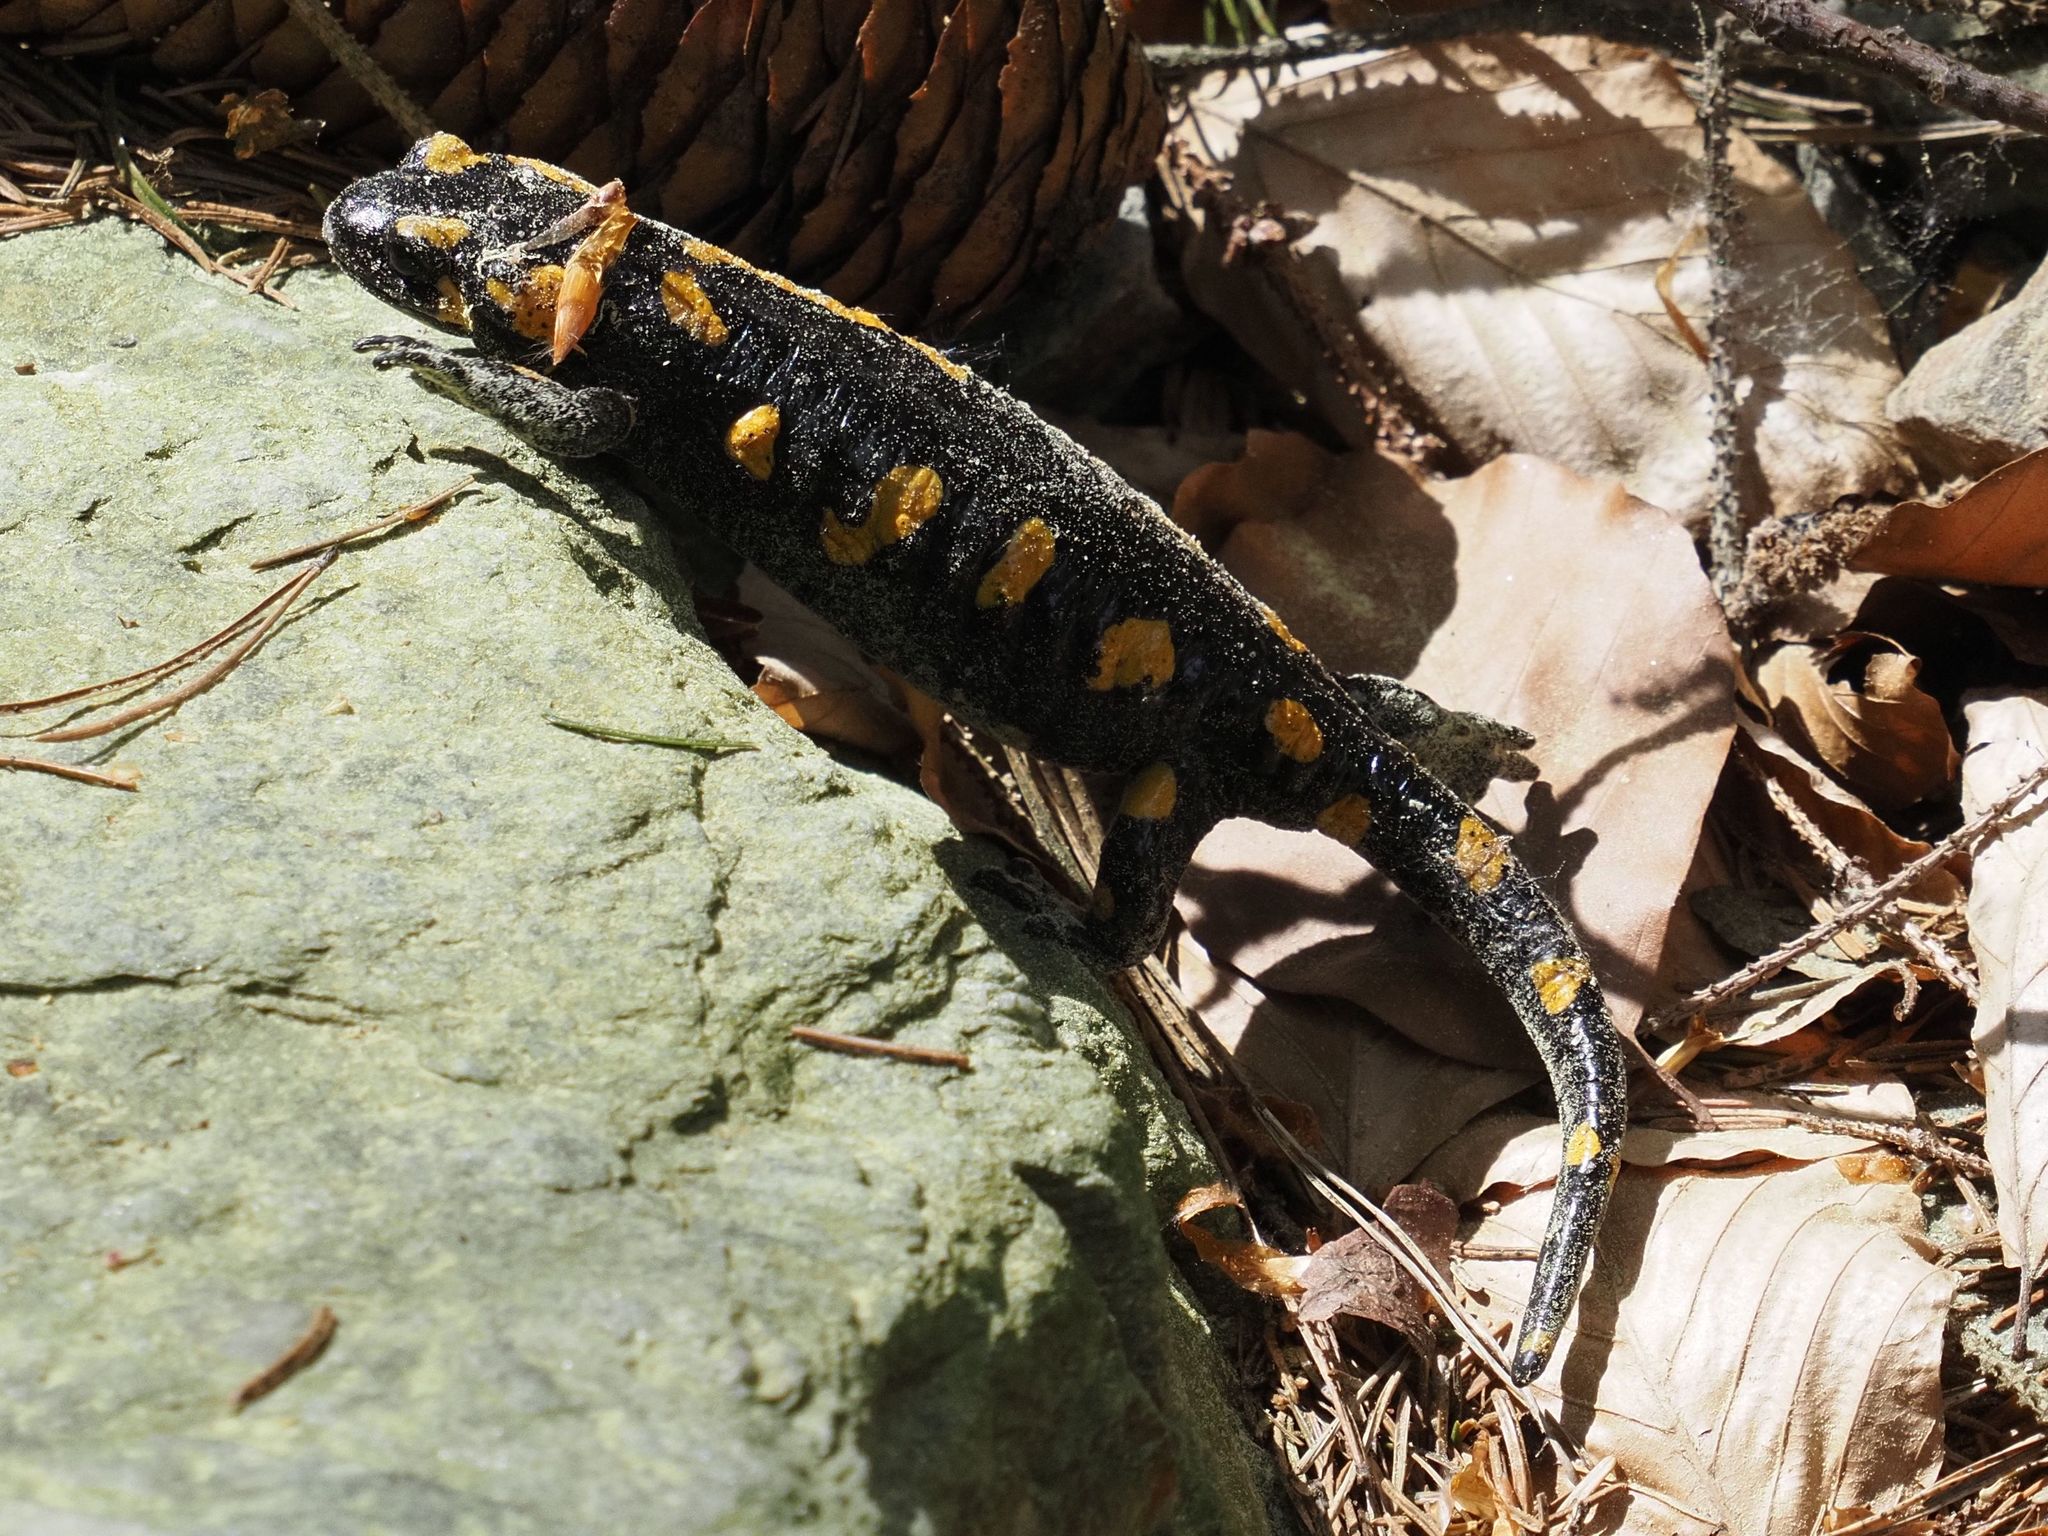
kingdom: Animalia
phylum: Chordata
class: Amphibia
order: Caudata
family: Salamandridae
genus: Salamandra
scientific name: Salamandra salamandra
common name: Fire salamander
